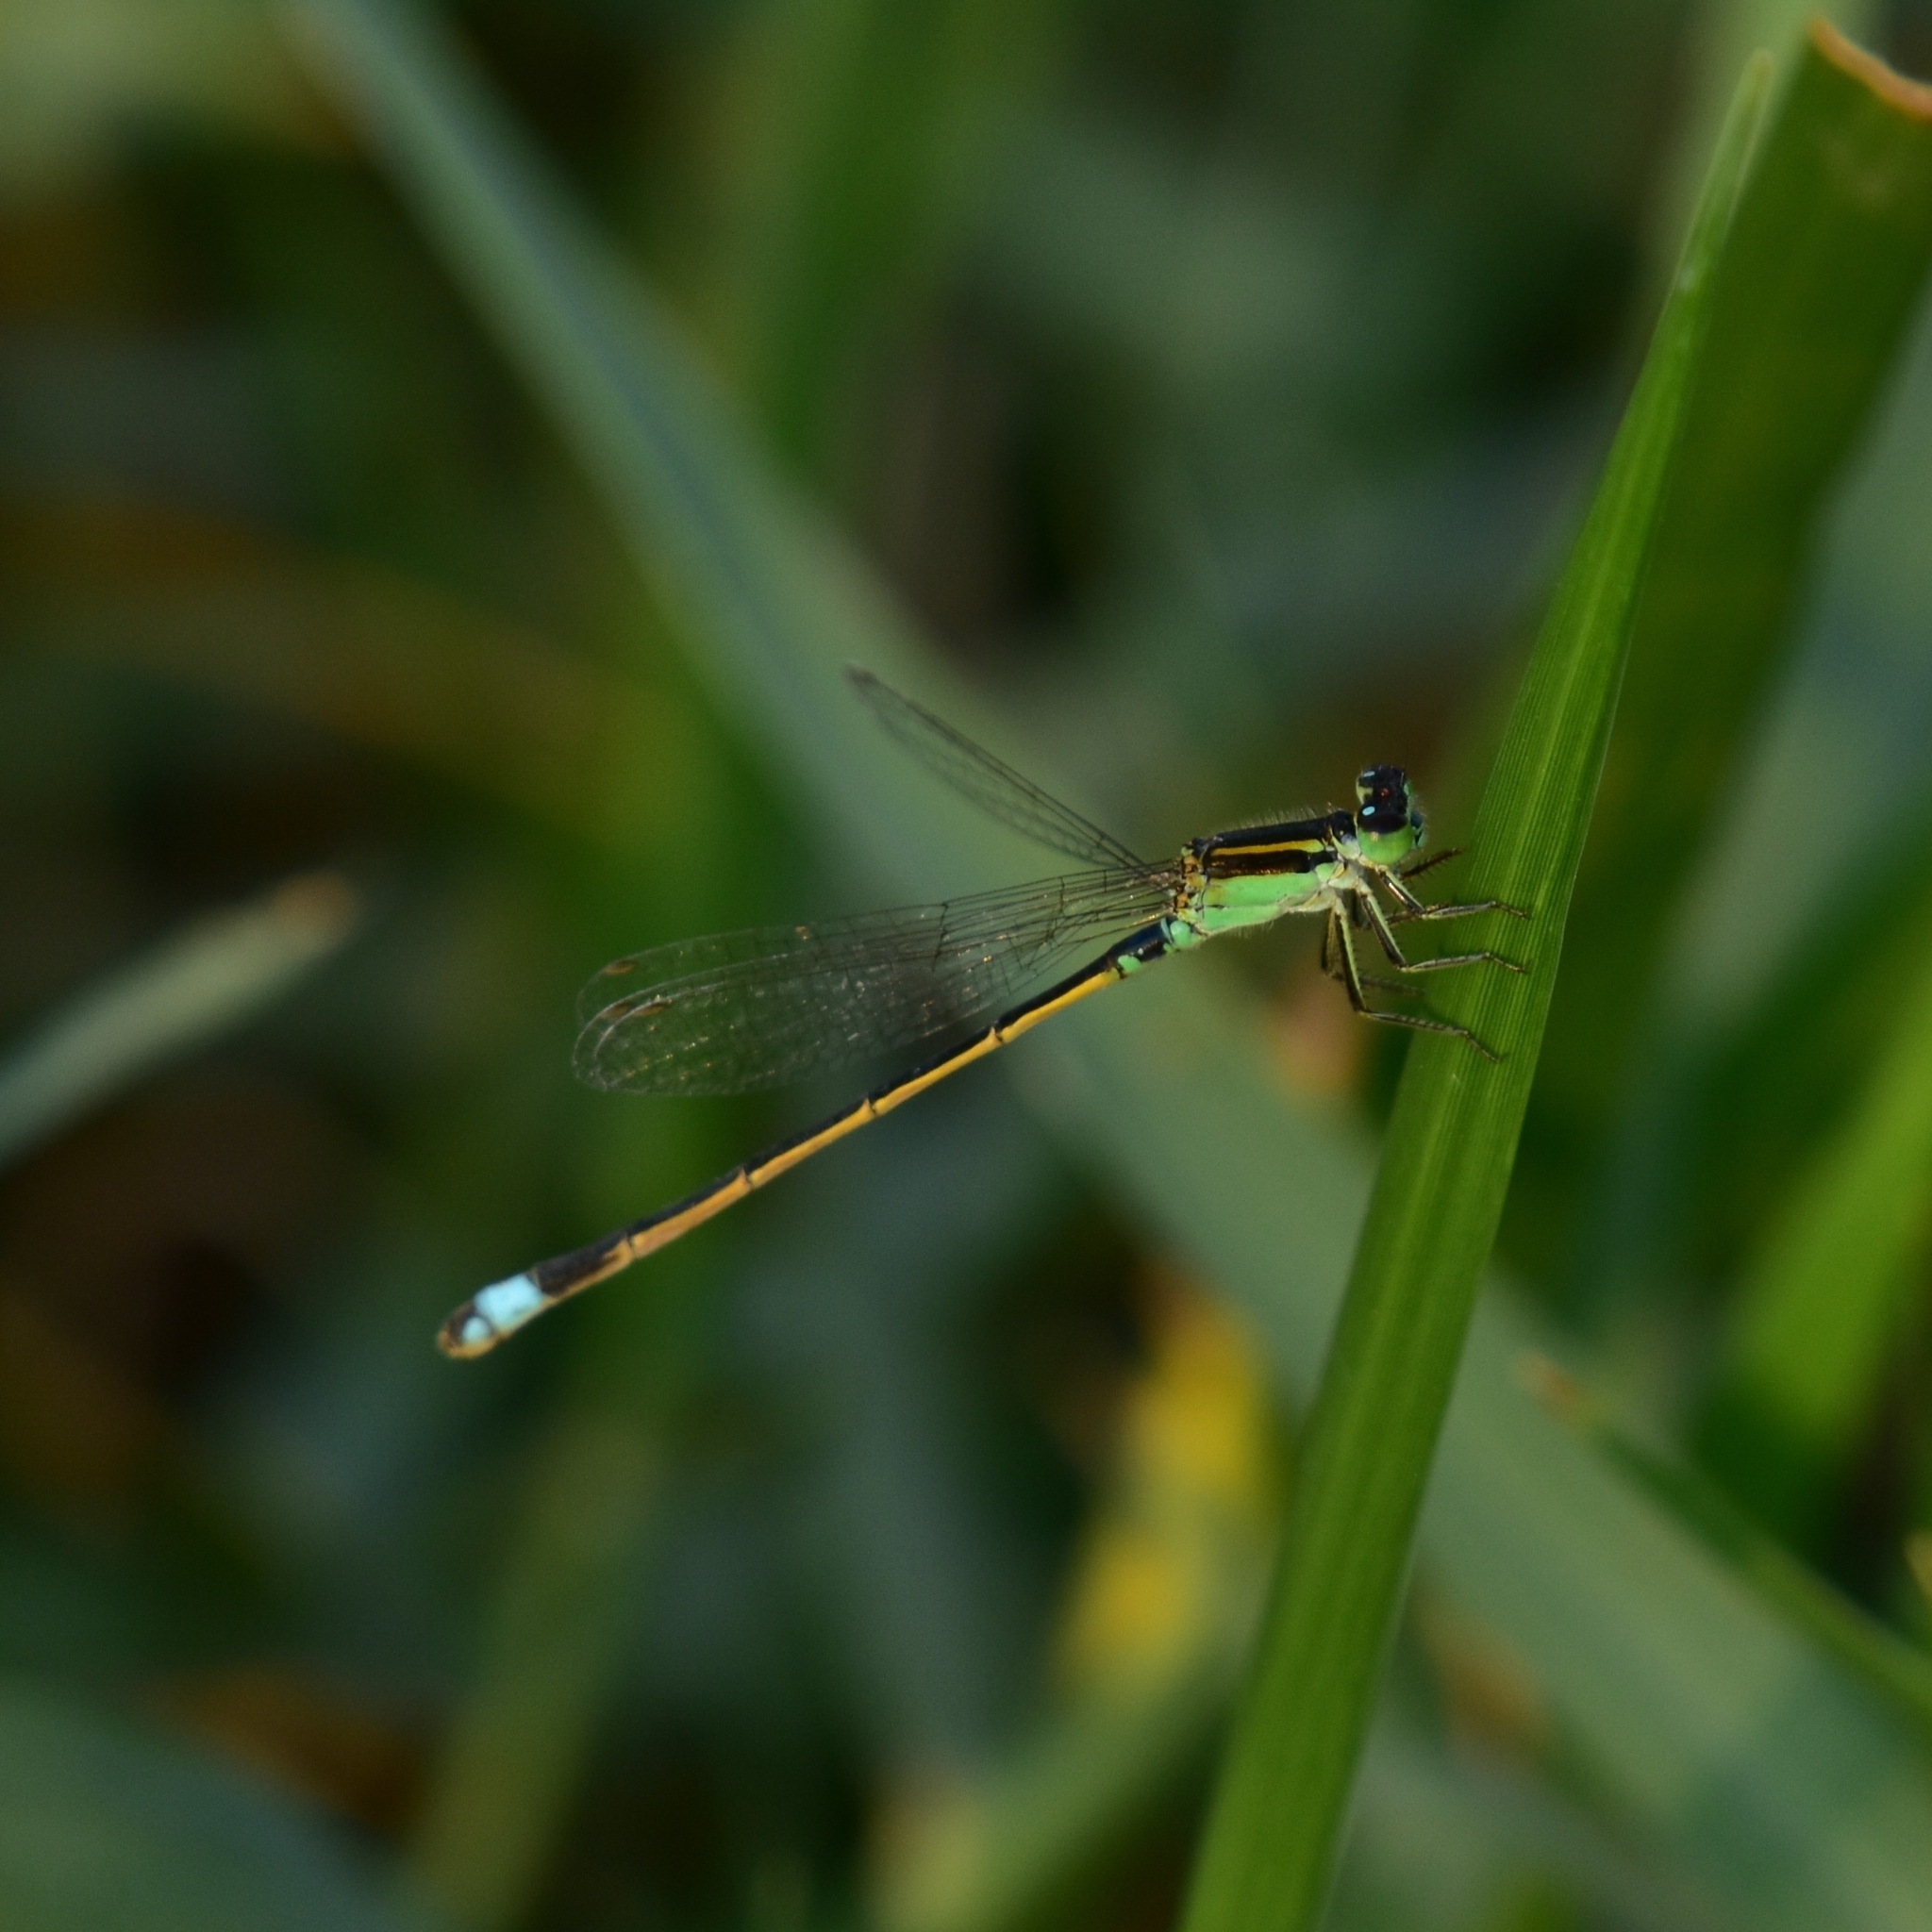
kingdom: Animalia
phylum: Arthropoda
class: Insecta
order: Odonata
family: Coenagrionidae
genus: Ischnura
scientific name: Ischnura senegalensis
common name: Tropical bluetail
